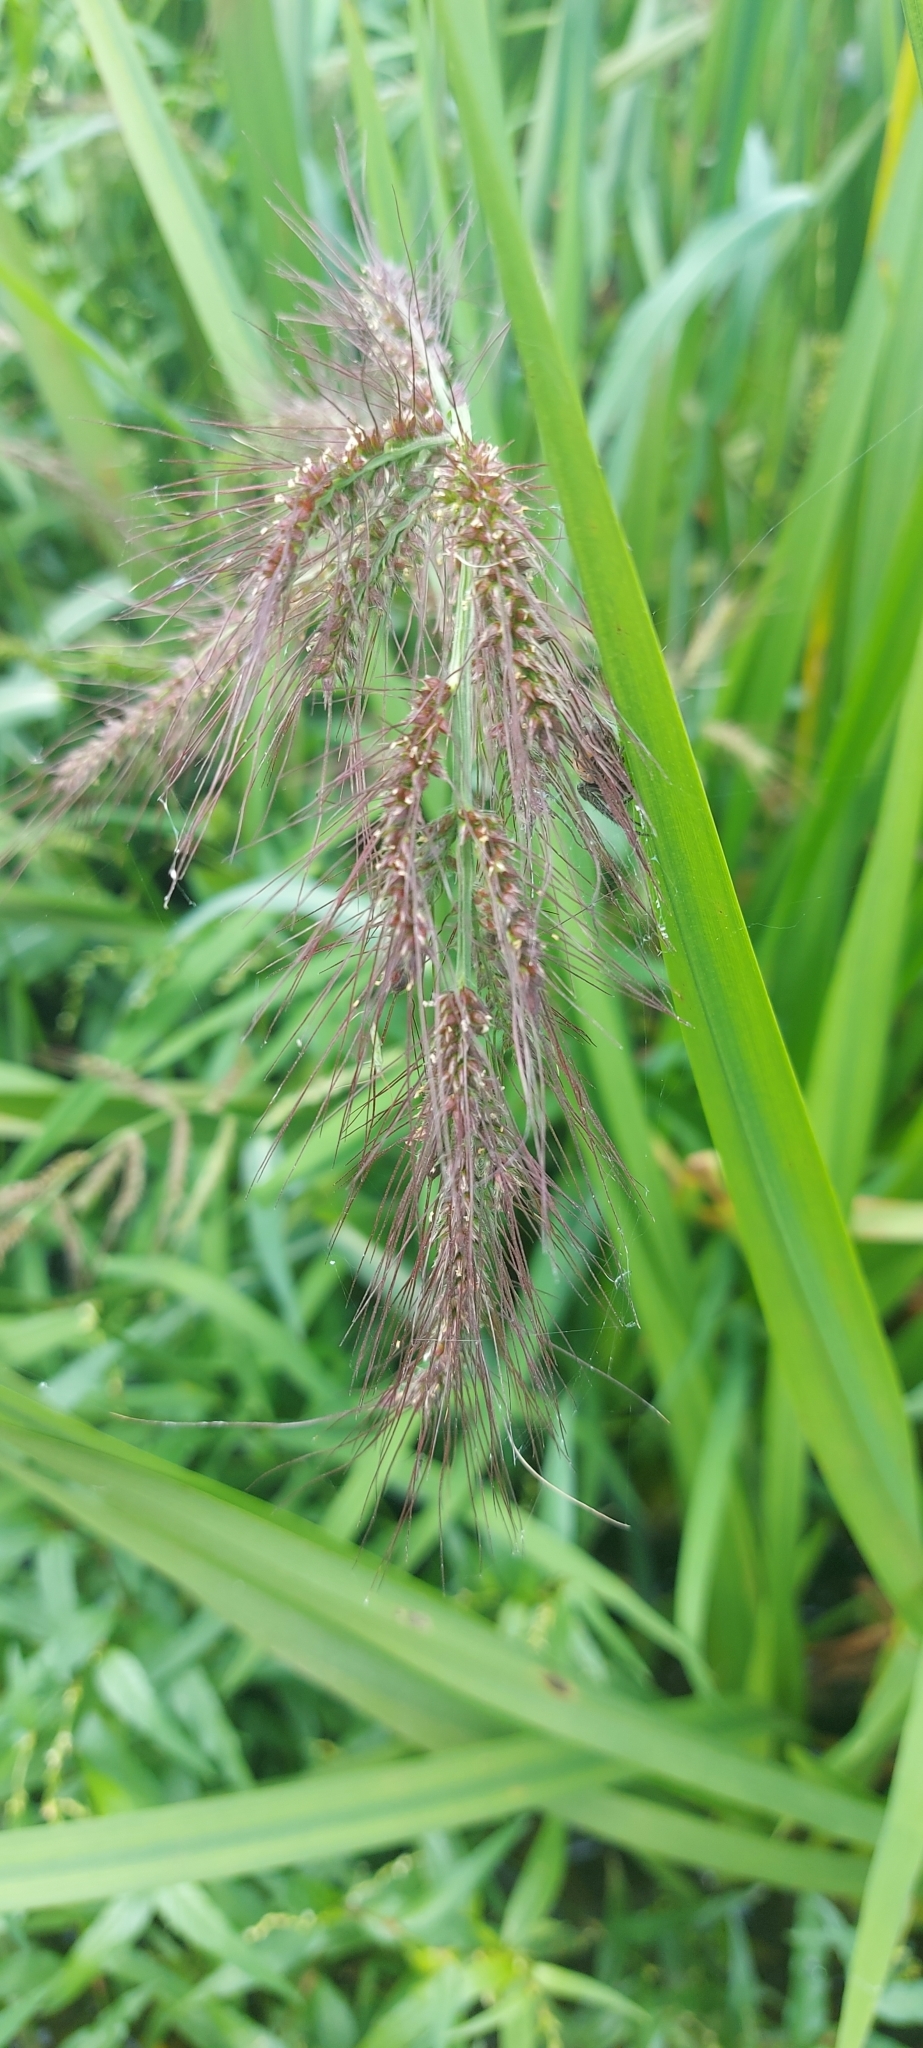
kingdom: Plantae
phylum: Tracheophyta
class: Liliopsida
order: Poales
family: Poaceae
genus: Echinochloa
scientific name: Echinochloa crus-galli
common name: Cockspur
